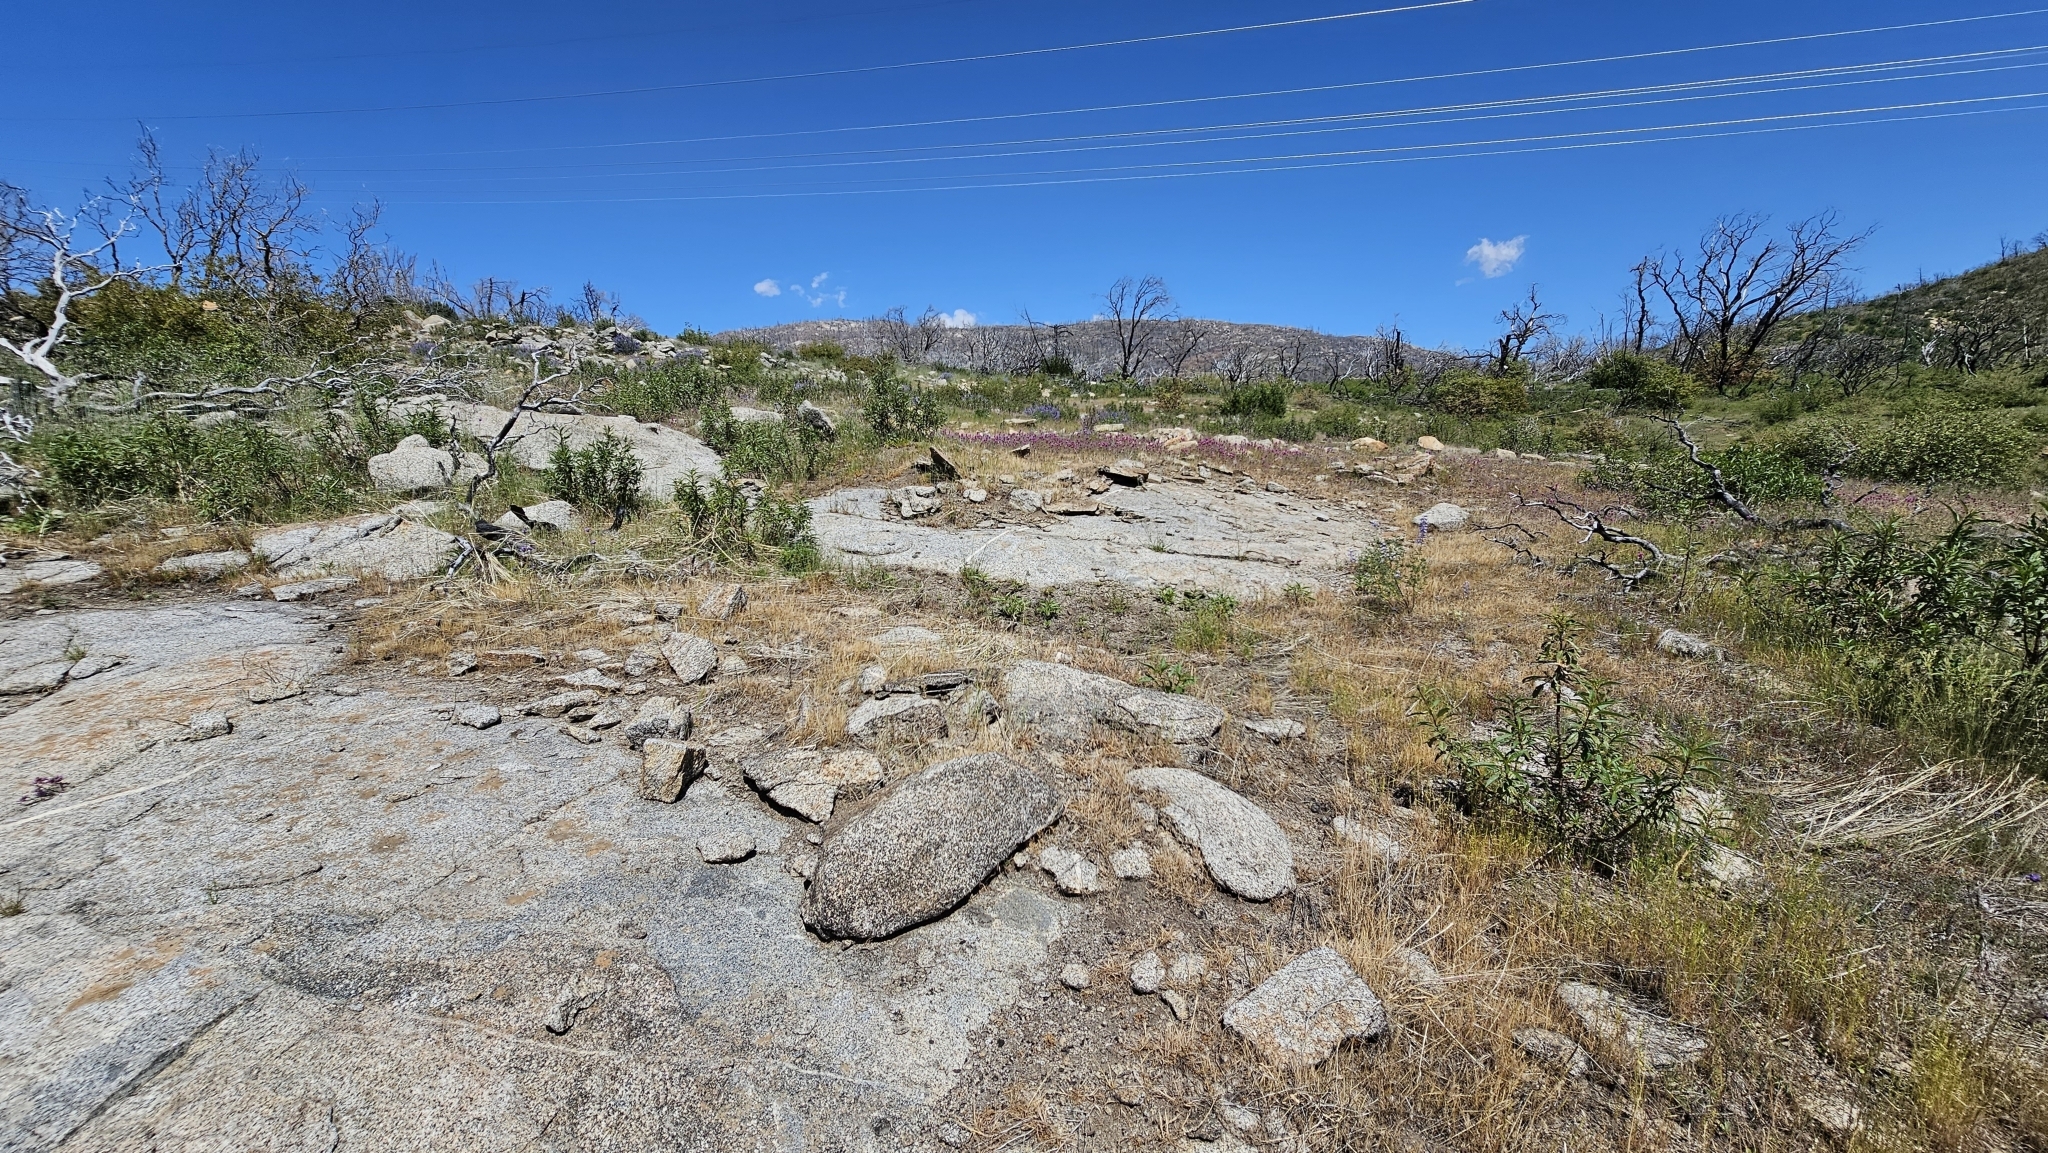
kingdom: Plantae
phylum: Tracheophyta
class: Liliopsida
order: Asparagales
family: Amaryllidaceae
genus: Allium
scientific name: Allium abramsii
